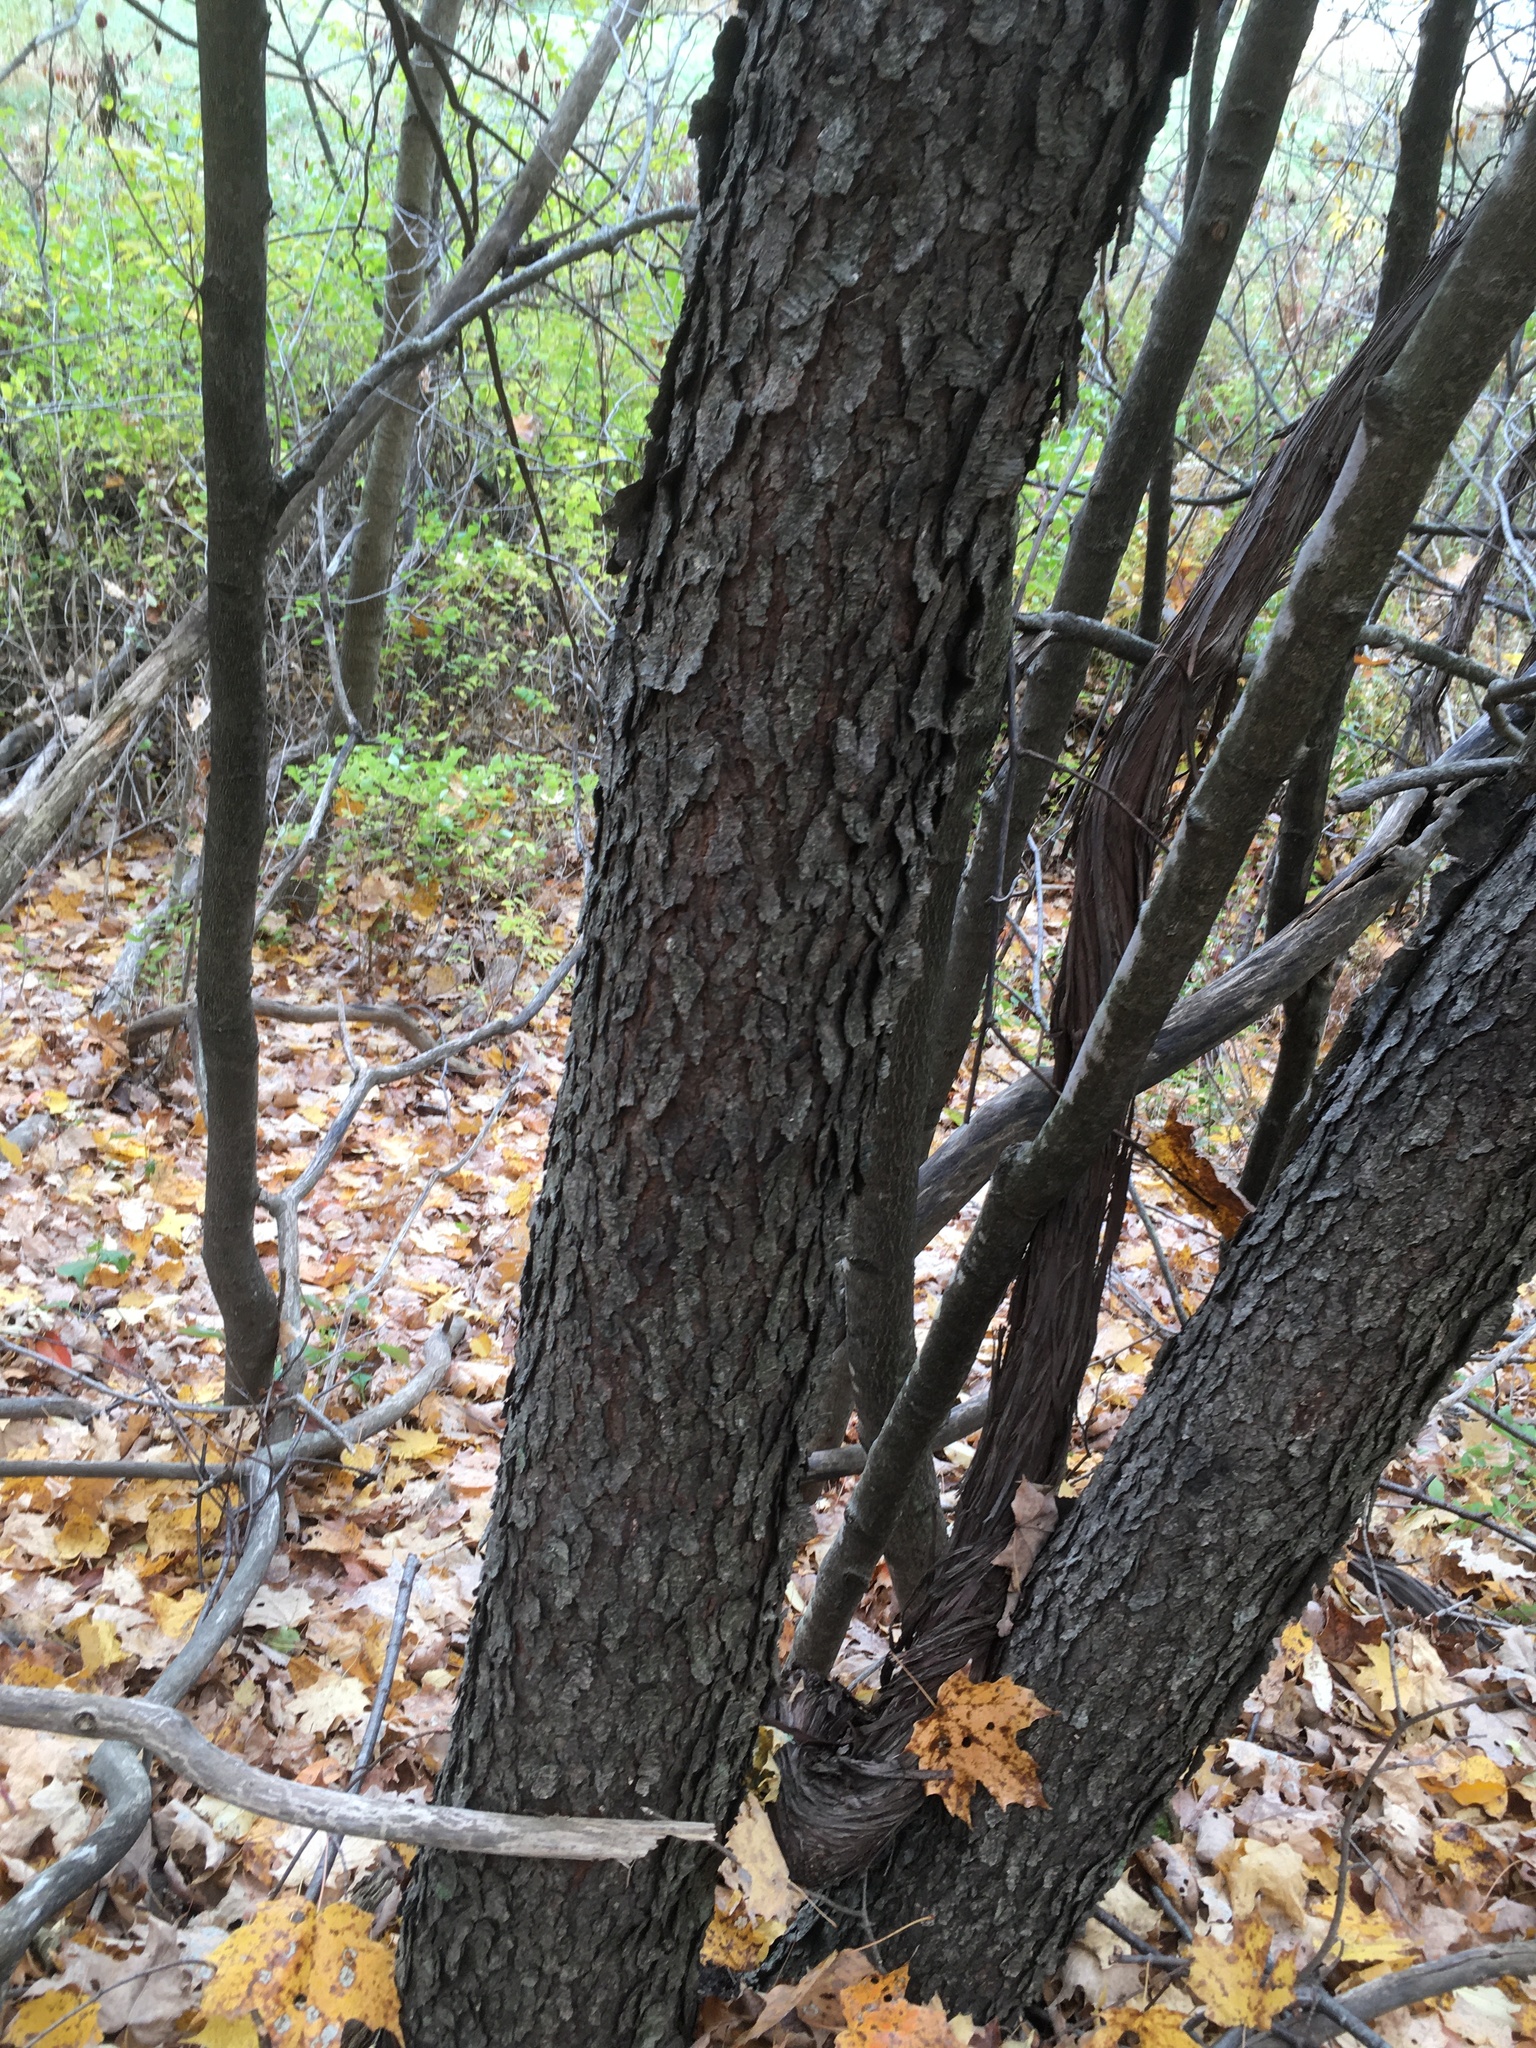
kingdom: Plantae
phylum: Tracheophyta
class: Magnoliopsida
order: Rosales
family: Rosaceae
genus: Prunus
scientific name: Prunus serotina
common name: Black cherry
